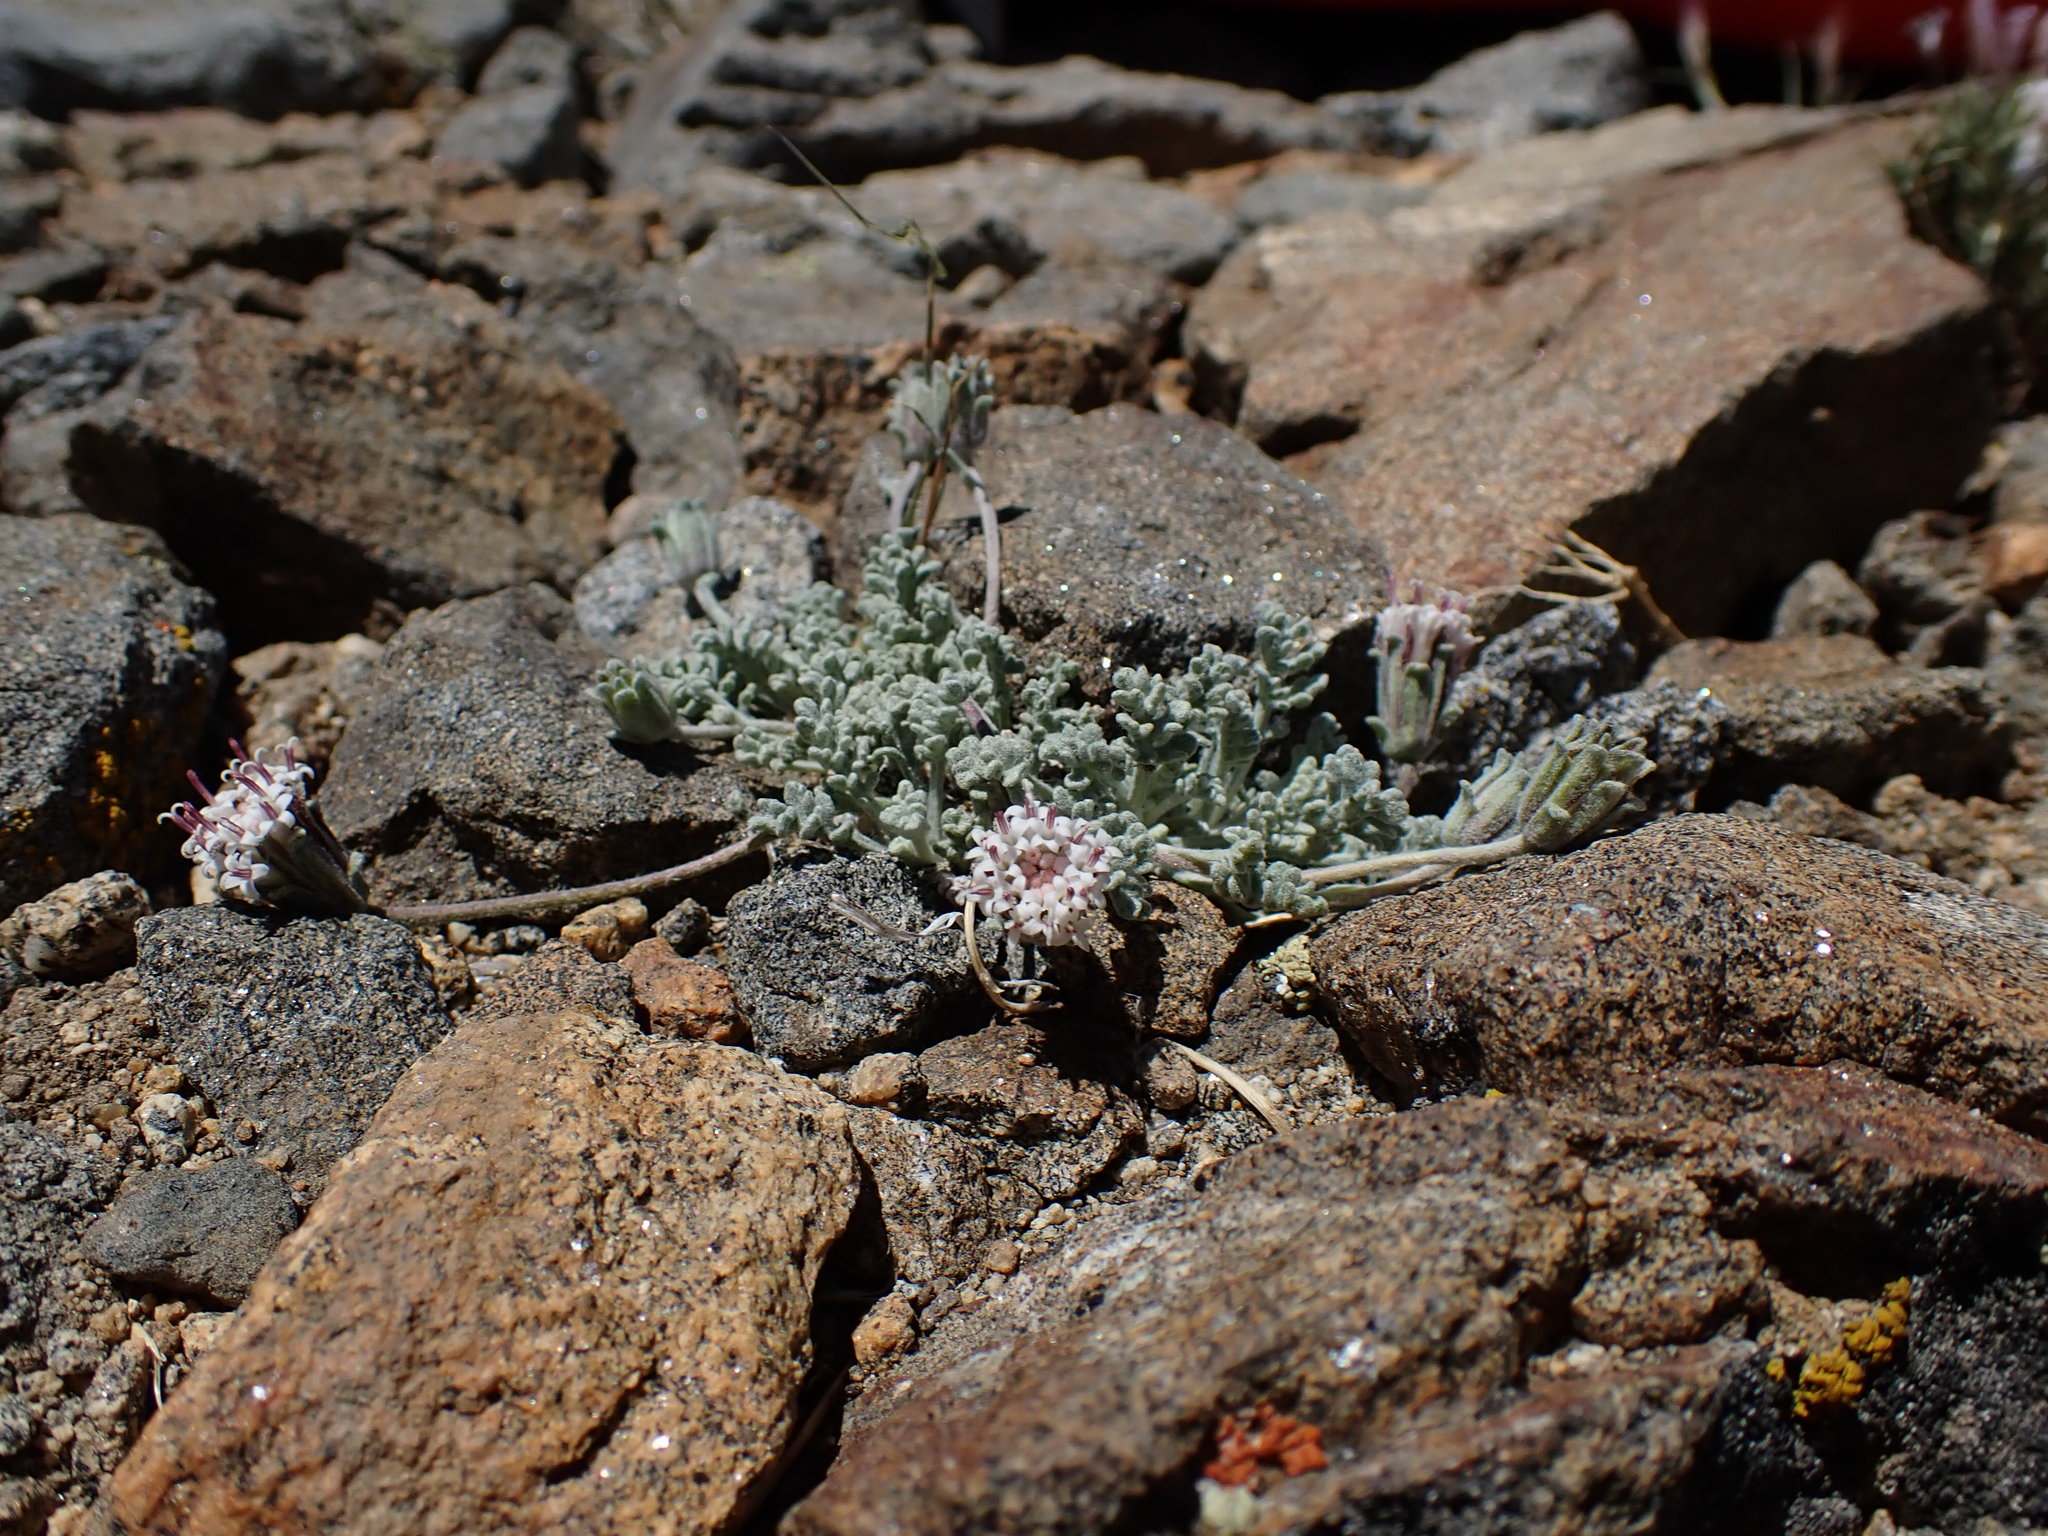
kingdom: Plantae
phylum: Tracheophyta
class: Magnoliopsida
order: Asterales
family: Asteraceae
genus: Chaenactis
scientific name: Chaenactis alpigena
